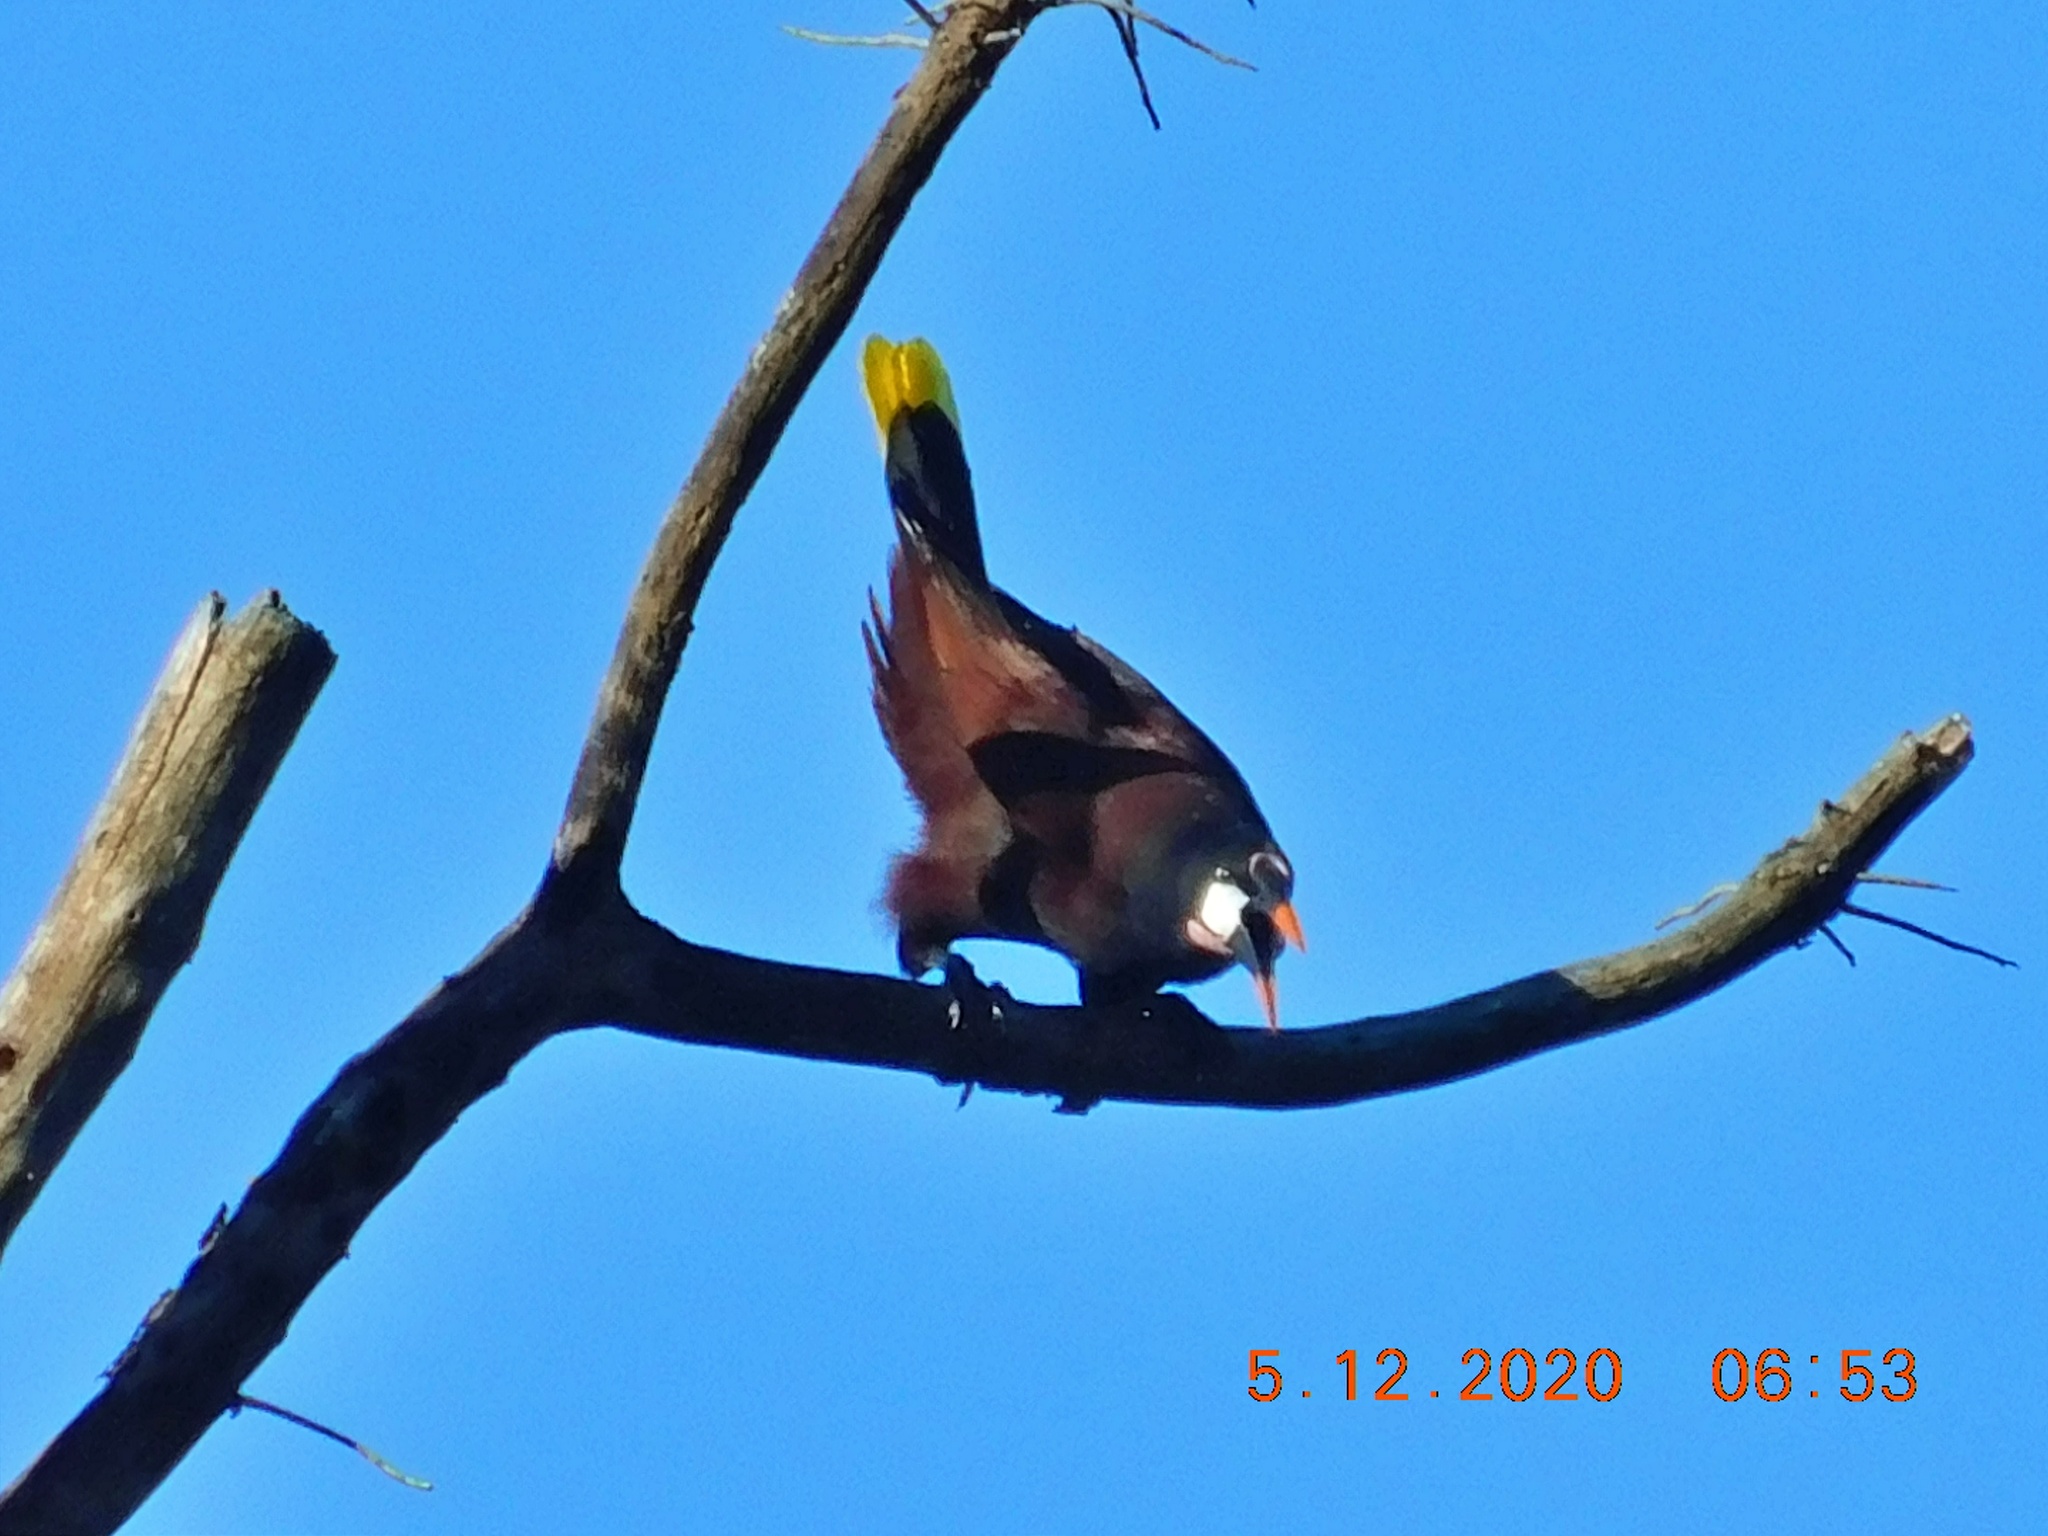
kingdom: Animalia
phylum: Chordata
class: Aves
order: Passeriformes
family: Icteridae
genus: Psarocolius
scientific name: Psarocolius montezuma
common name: Montezuma oropendola
